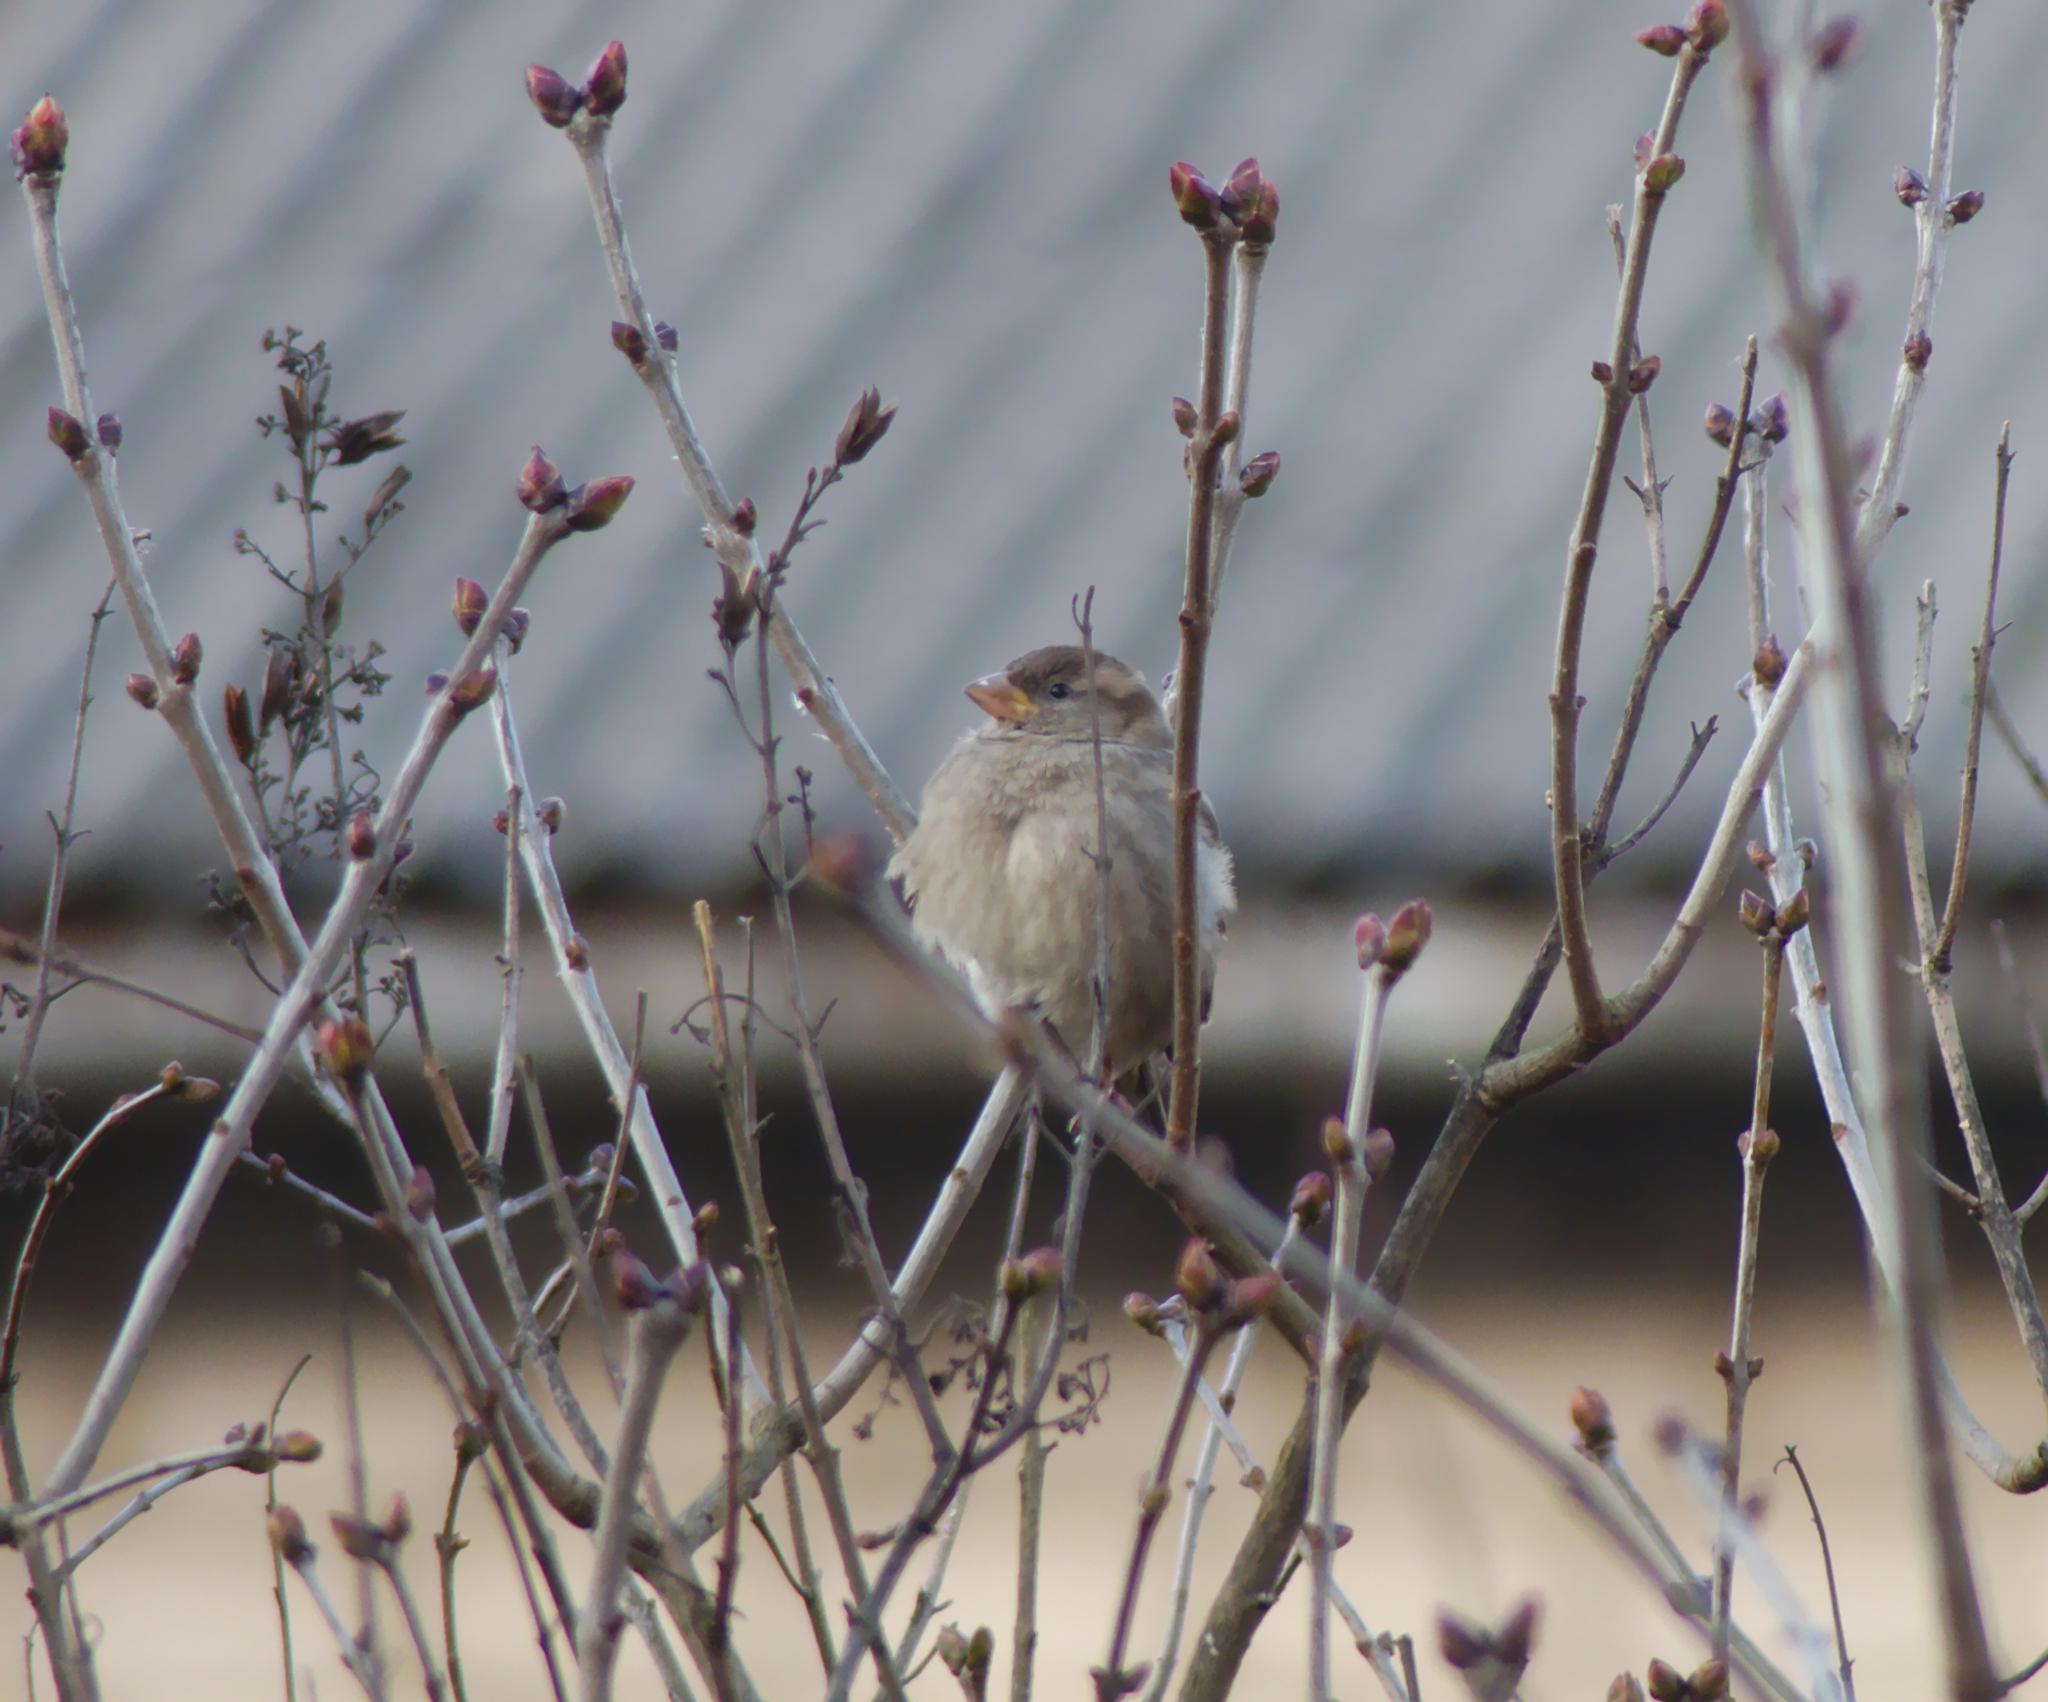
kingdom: Animalia
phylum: Chordata
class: Aves
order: Passeriformes
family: Passeridae
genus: Passer
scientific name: Passer domesticus
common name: House sparrow
